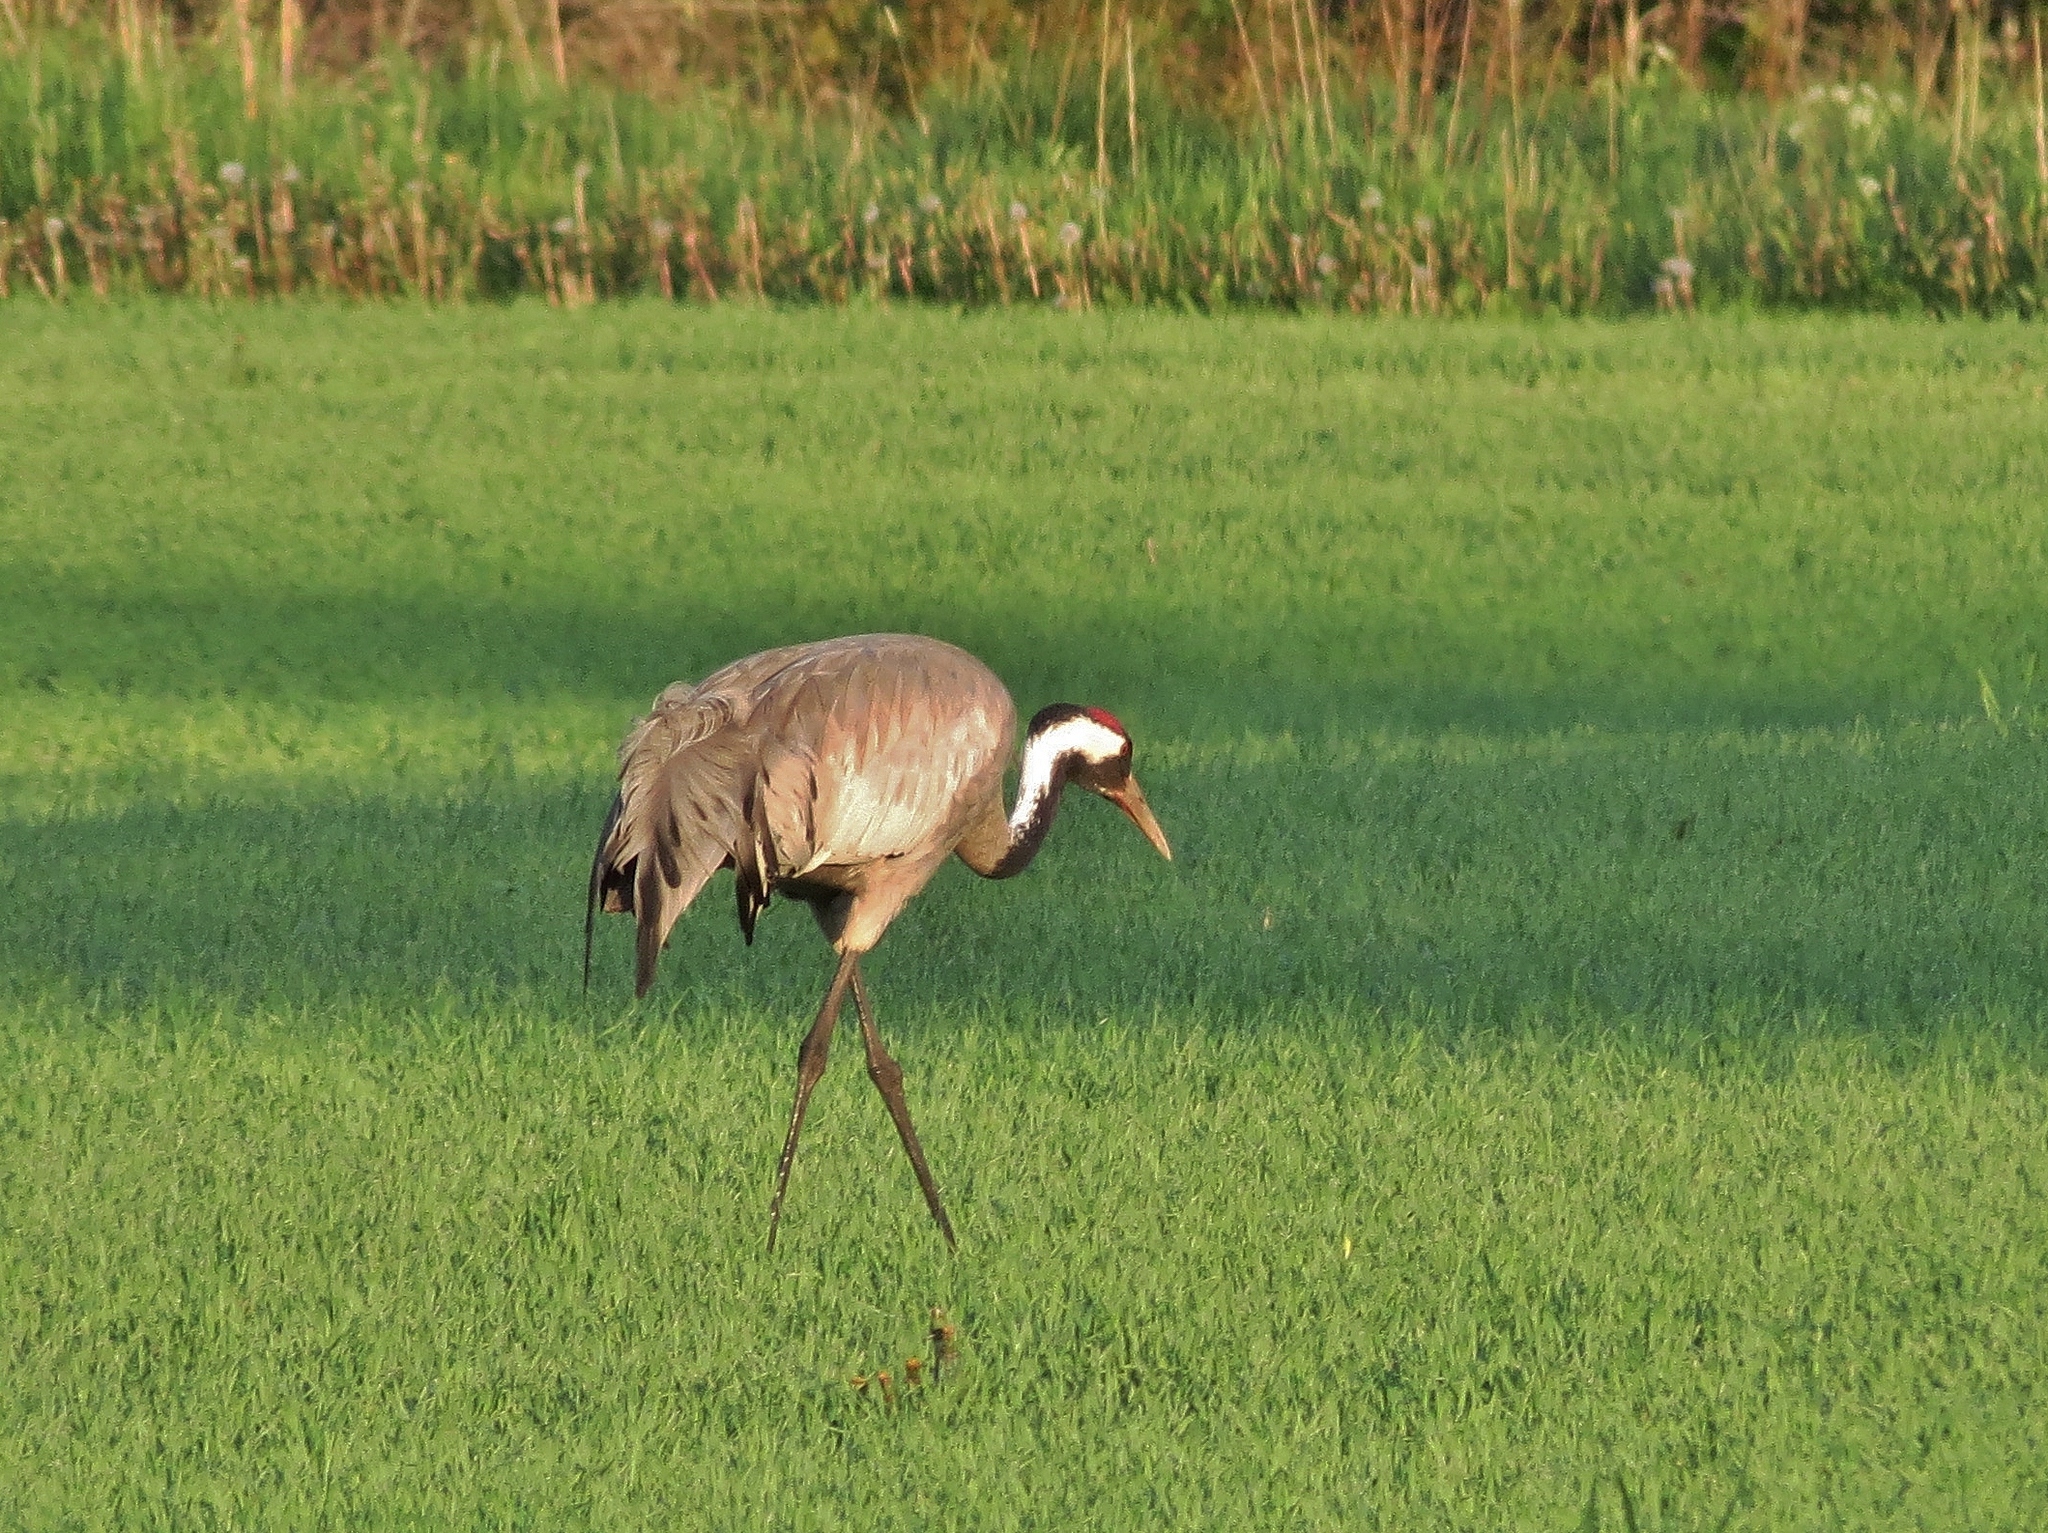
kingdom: Animalia
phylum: Chordata
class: Aves
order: Gruiformes
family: Gruidae
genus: Grus
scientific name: Grus grus
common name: Common crane
